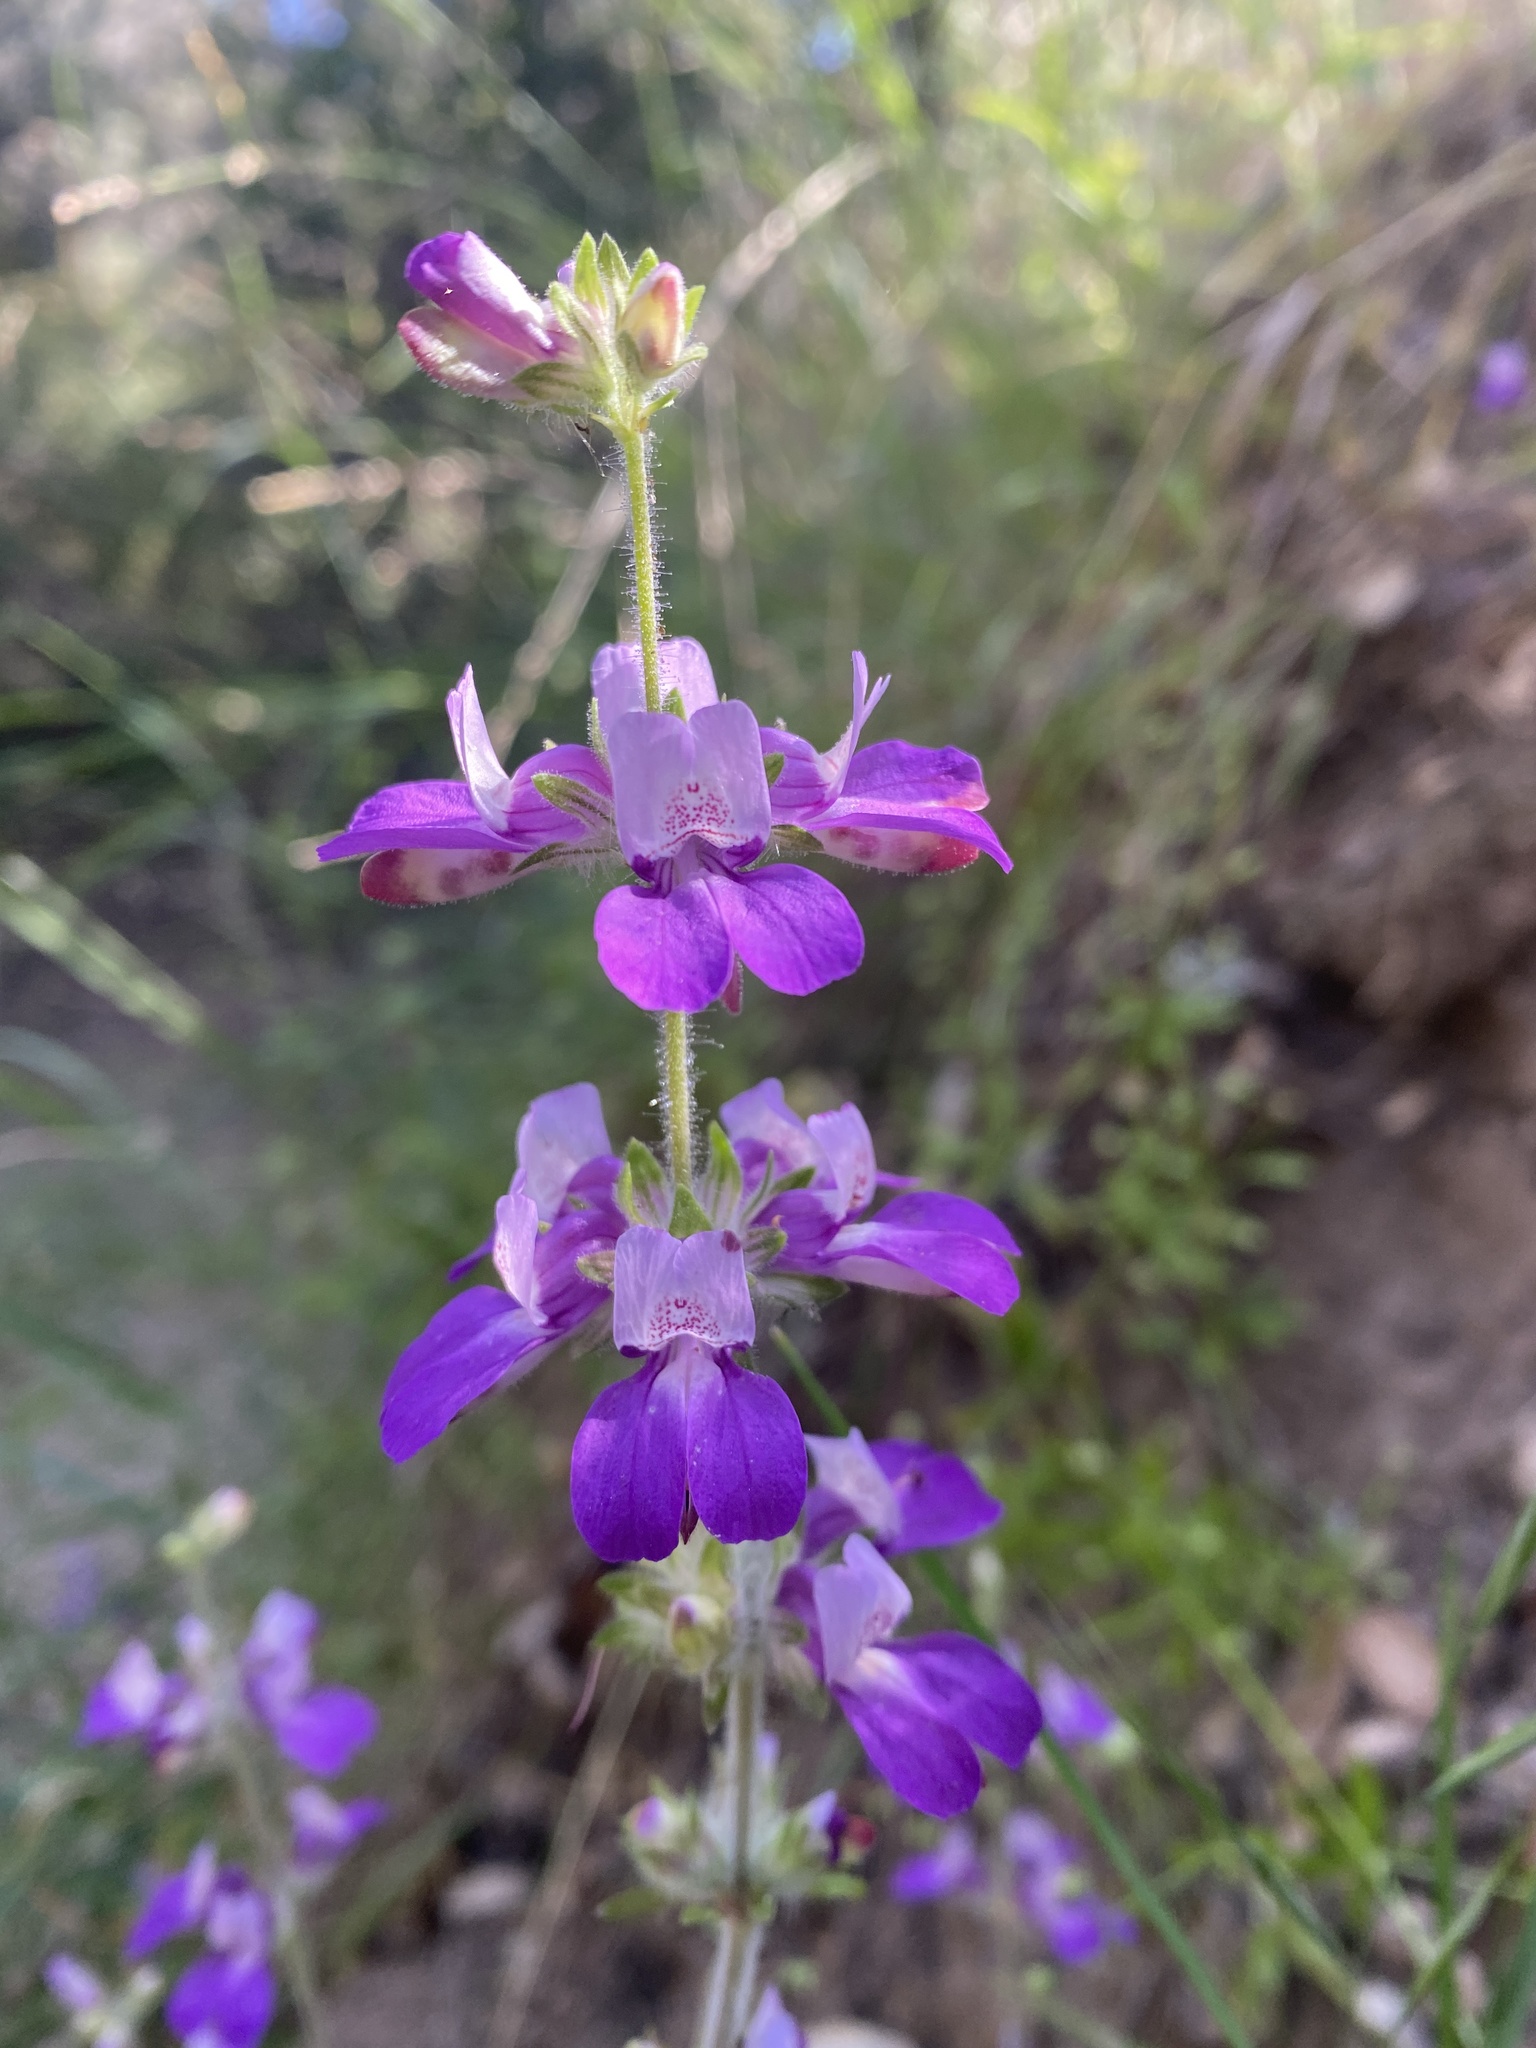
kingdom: Plantae
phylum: Tracheophyta
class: Magnoliopsida
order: Lamiales
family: Plantaginaceae
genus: Collinsia
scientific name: Collinsia heterophylla
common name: Chinese-houses
